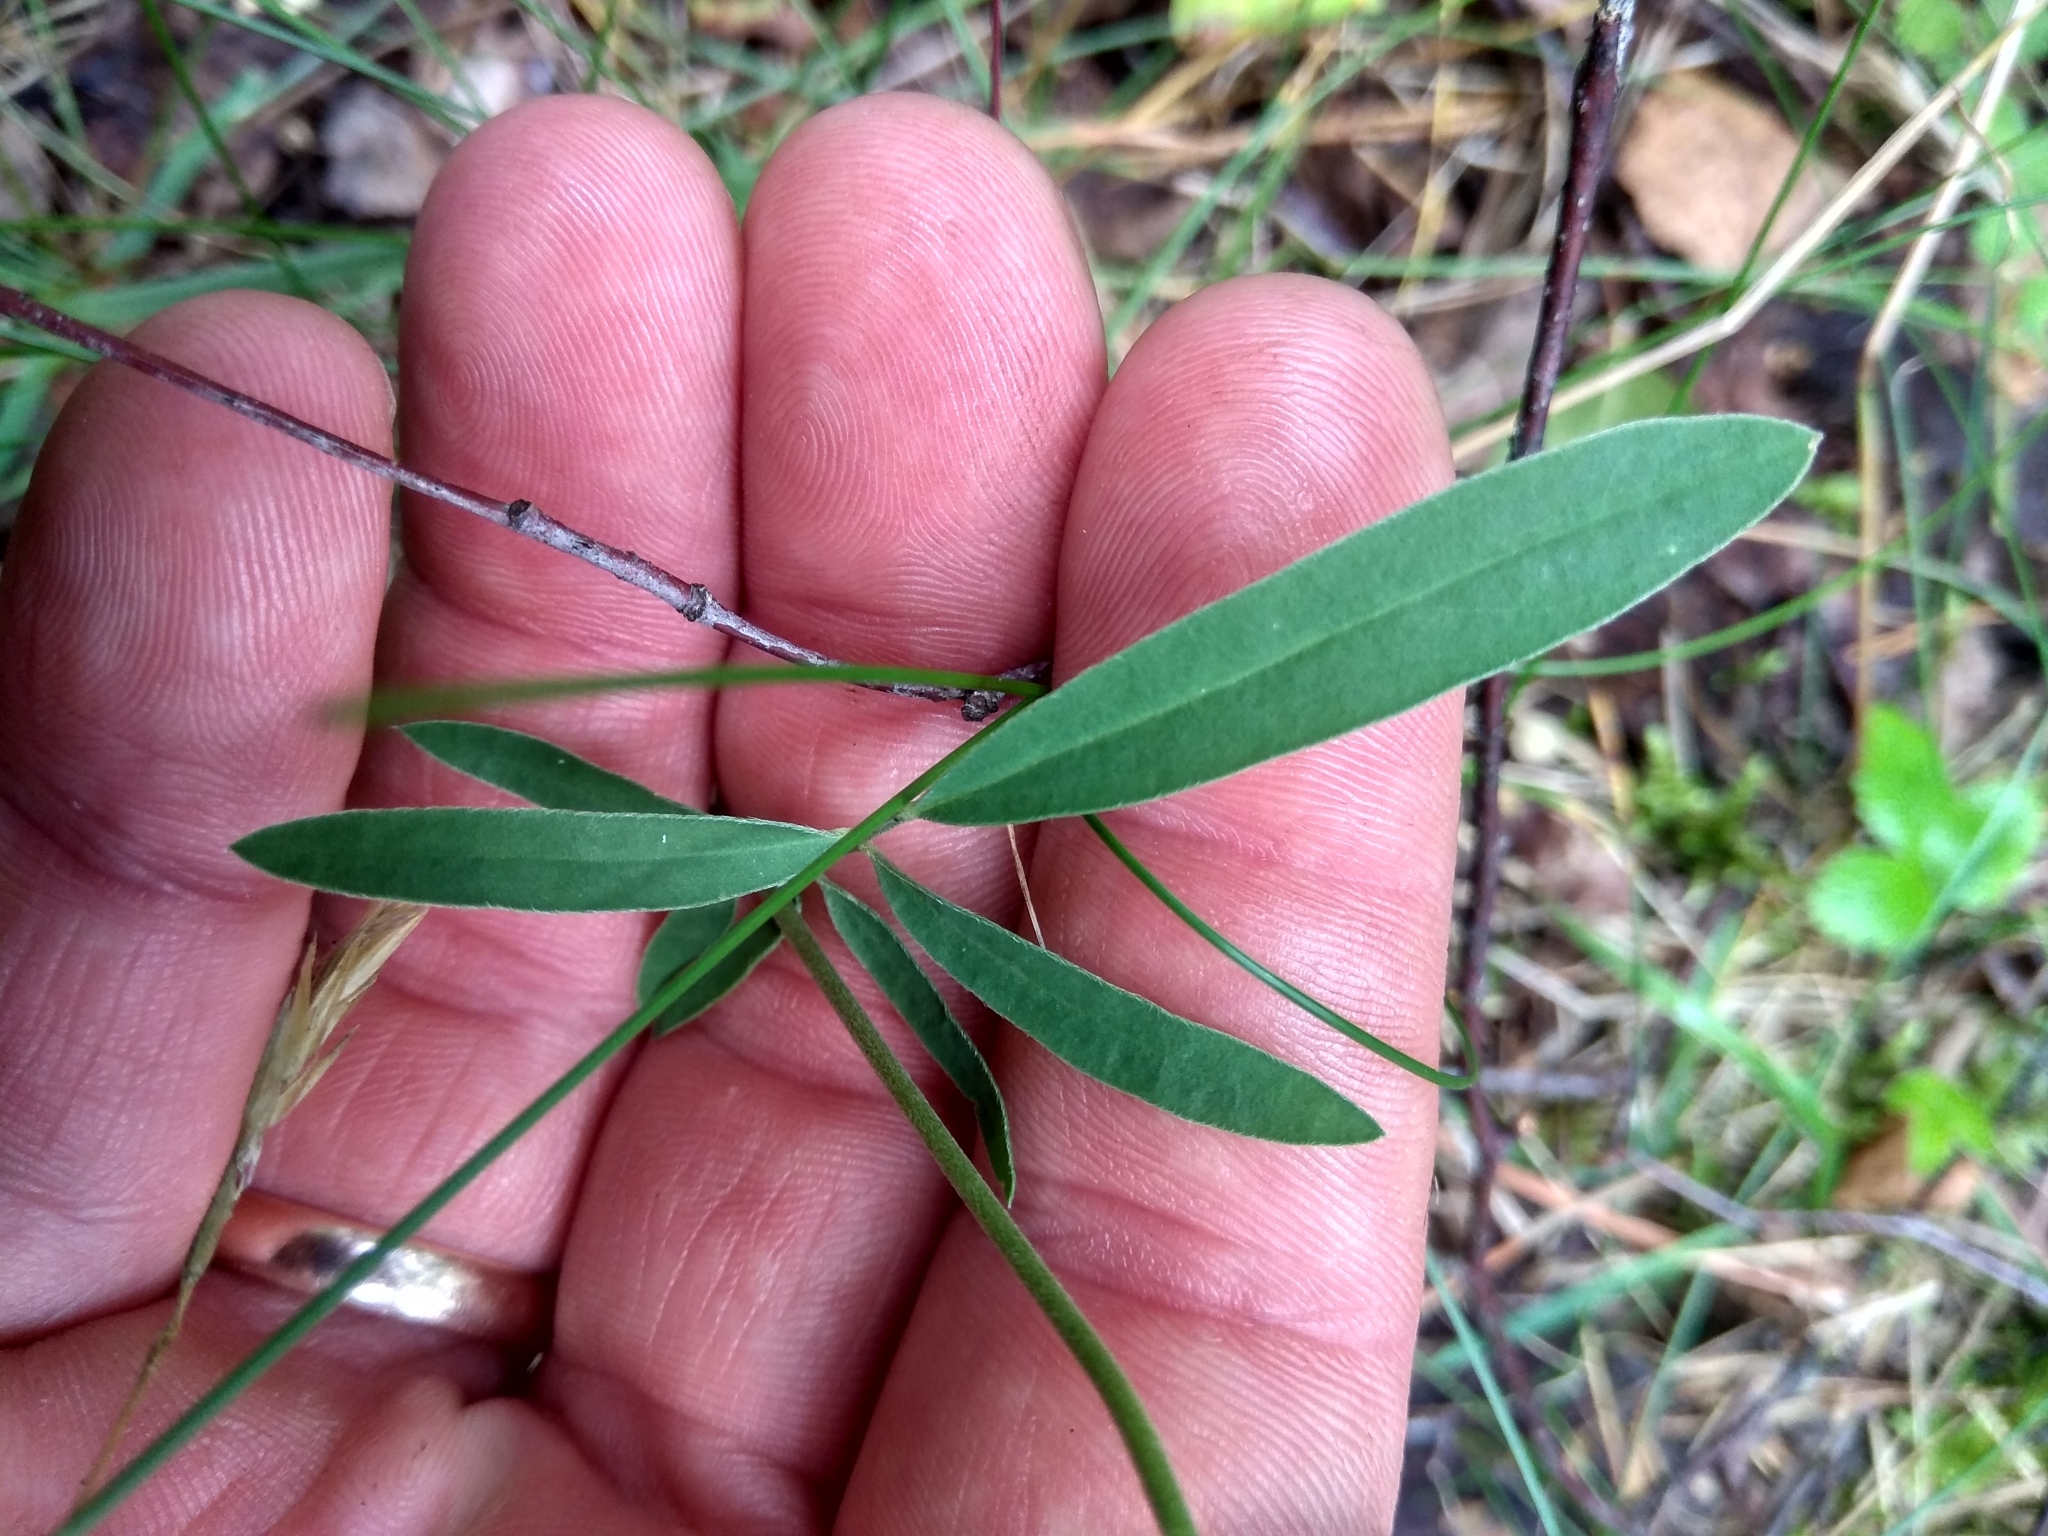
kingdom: Plantae
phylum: Tracheophyta
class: Magnoliopsida
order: Fabales
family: Fabaceae
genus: Anthyllis
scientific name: Anthyllis vulneraria
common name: Kidney vetch
